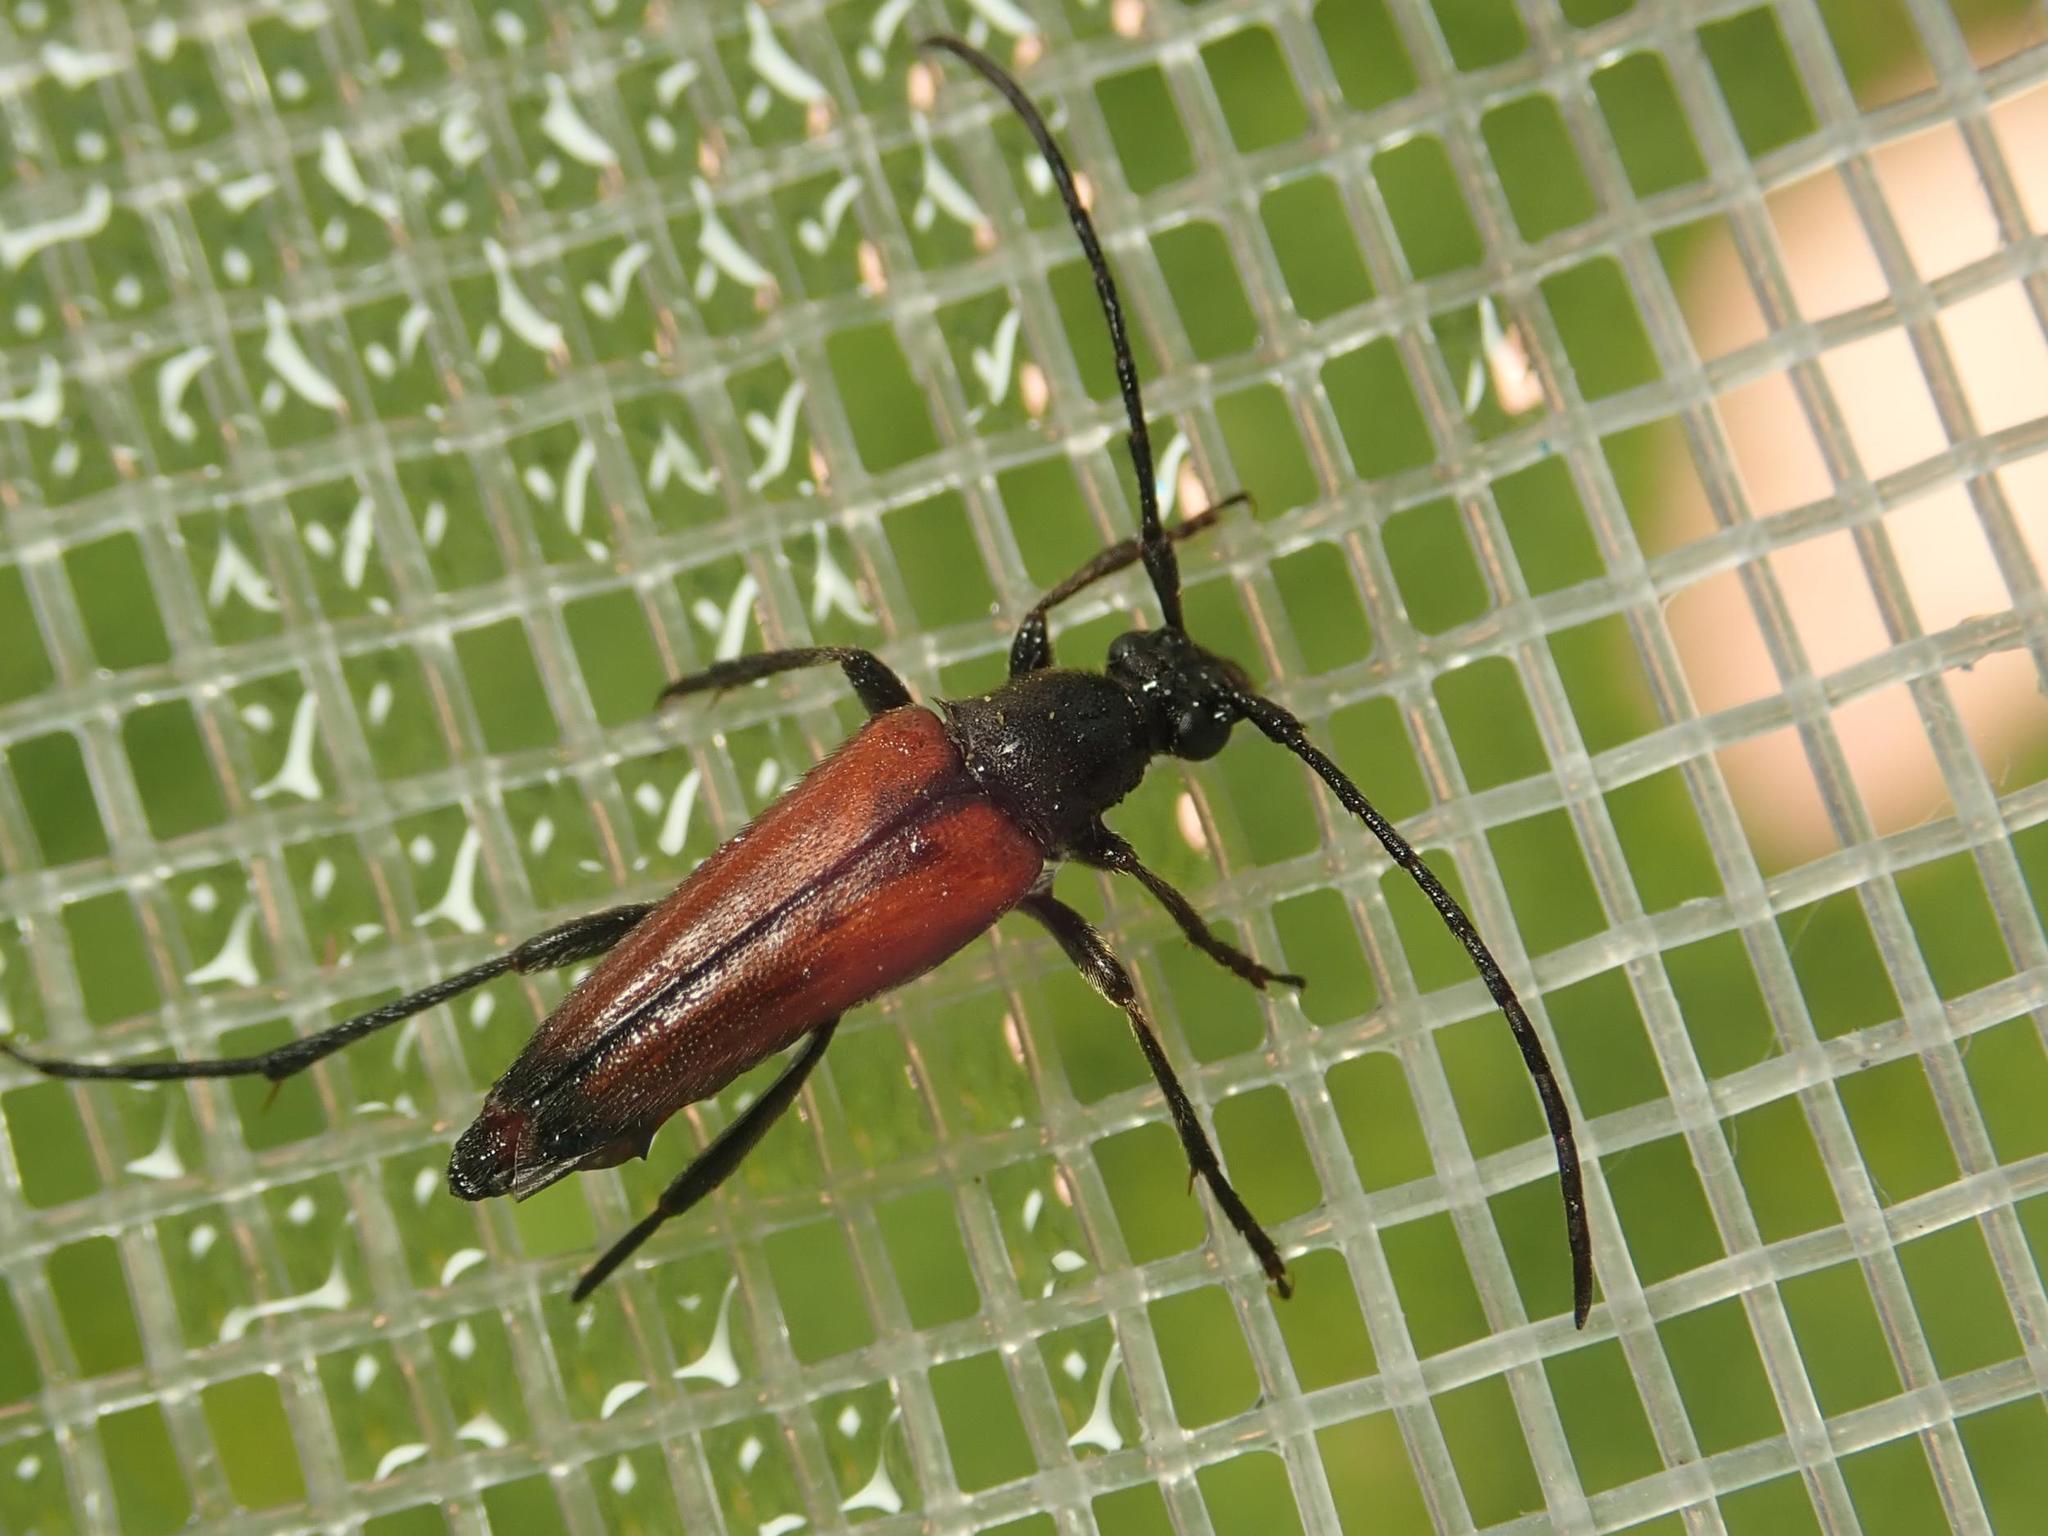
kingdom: Animalia
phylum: Arthropoda
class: Insecta
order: Coleoptera
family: Cerambycidae
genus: Stenurella
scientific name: Stenurella bifasciata
